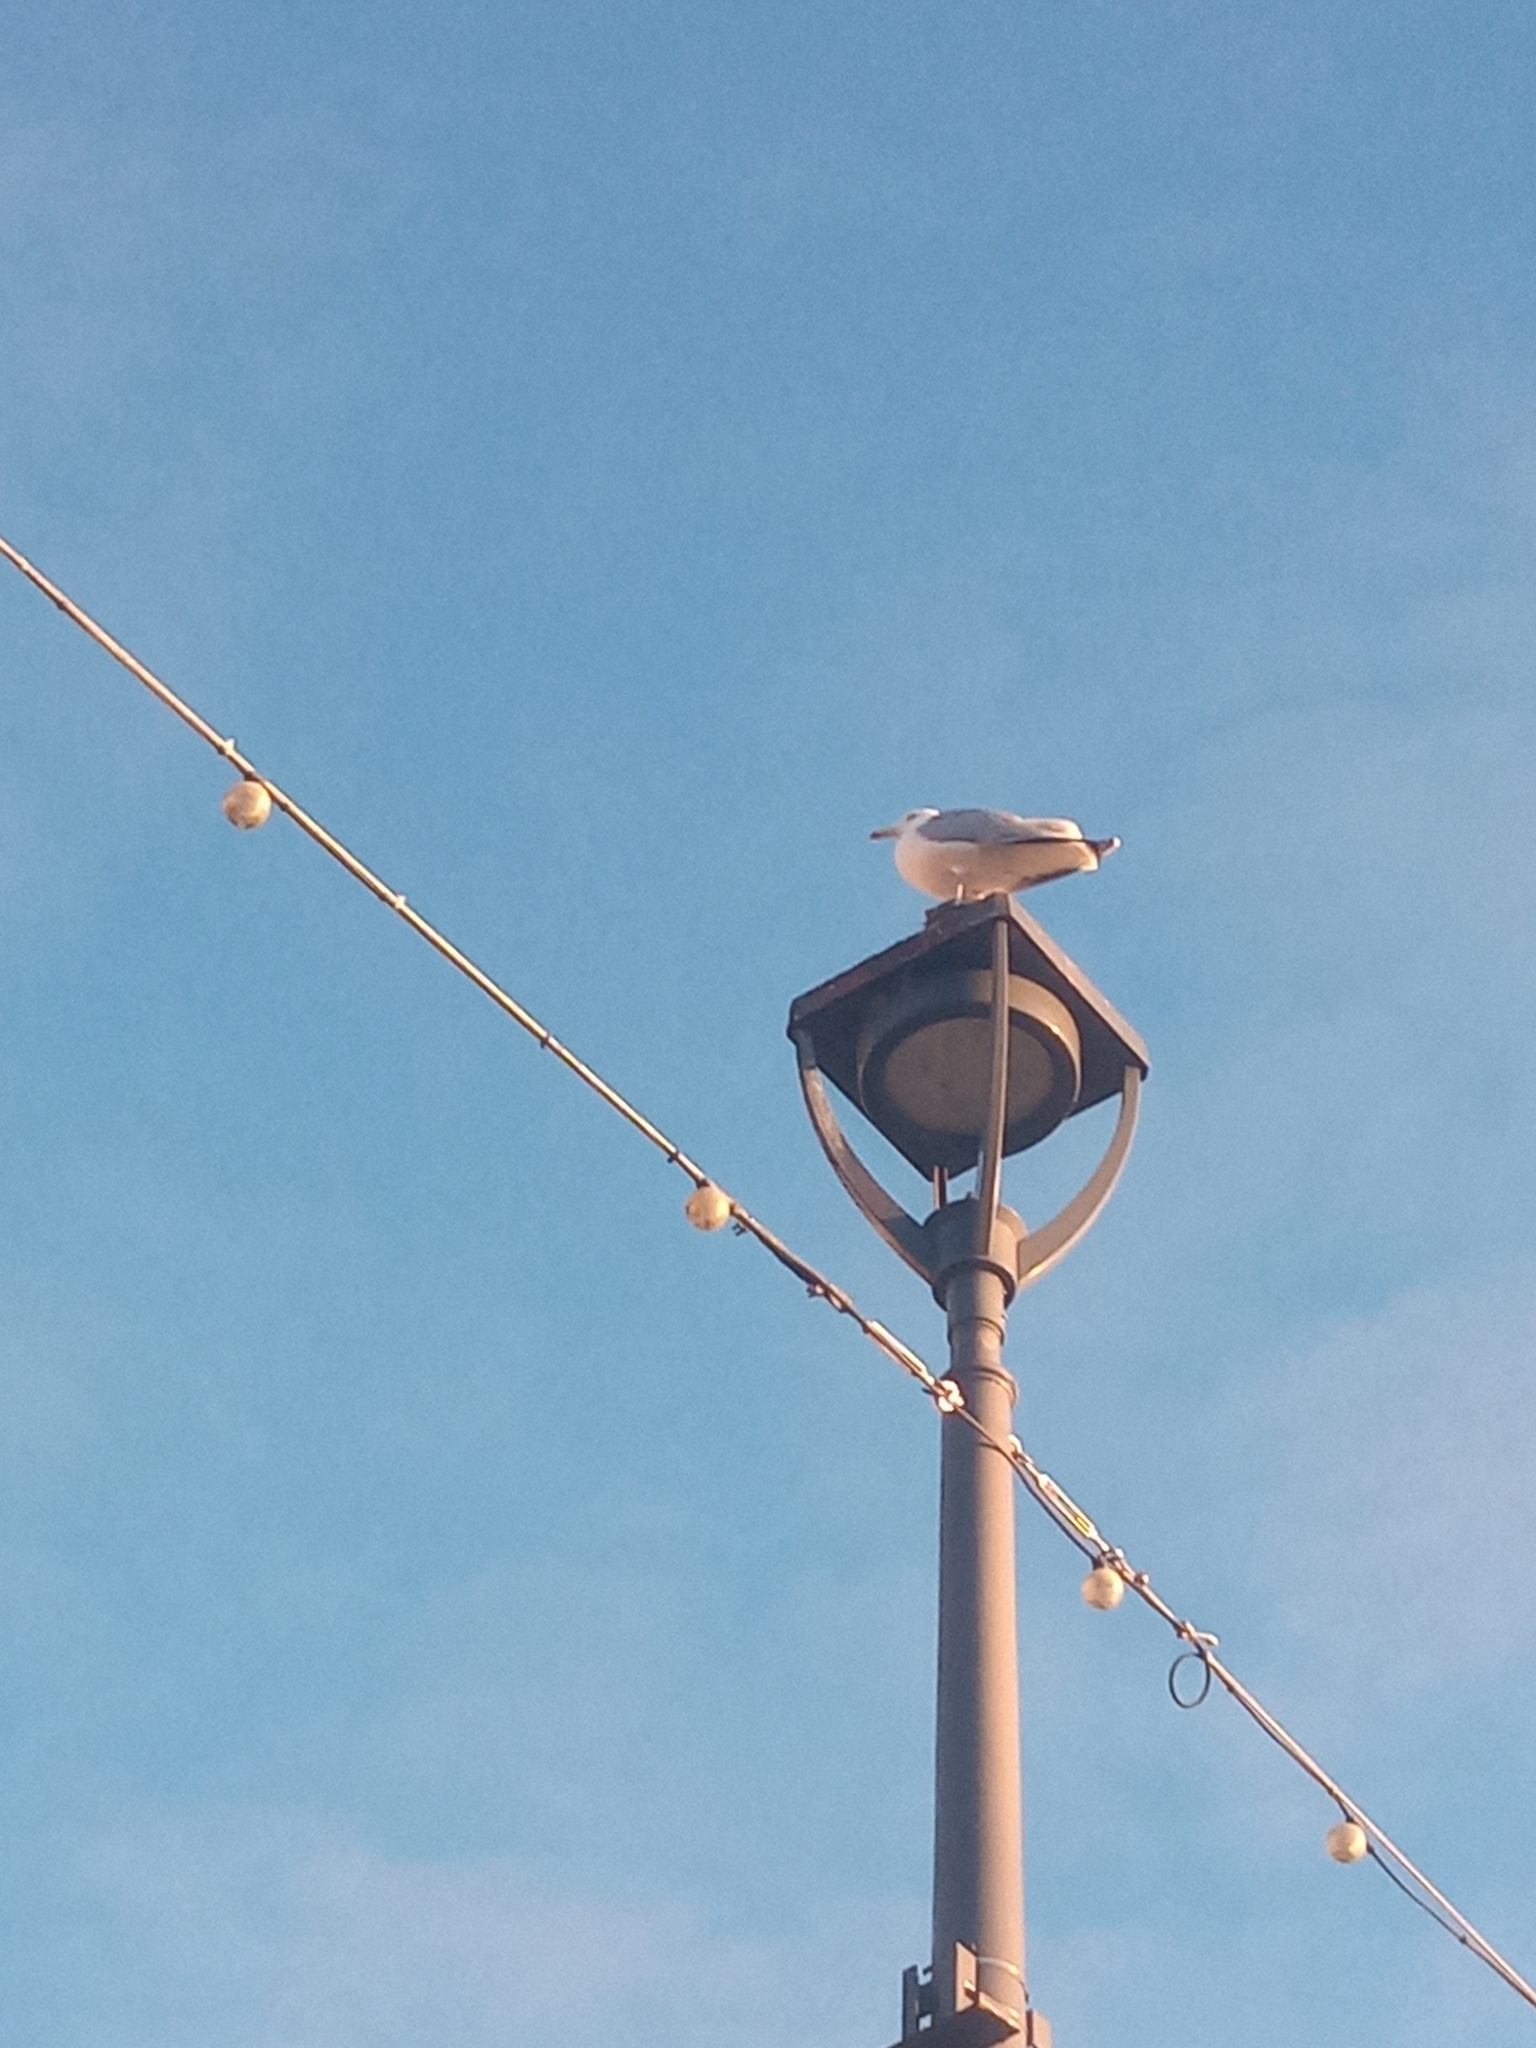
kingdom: Animalia
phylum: Chordata
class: Aves
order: Charadriiformes
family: Laridae
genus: Larus
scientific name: Larus argentatus
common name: Herring gull
